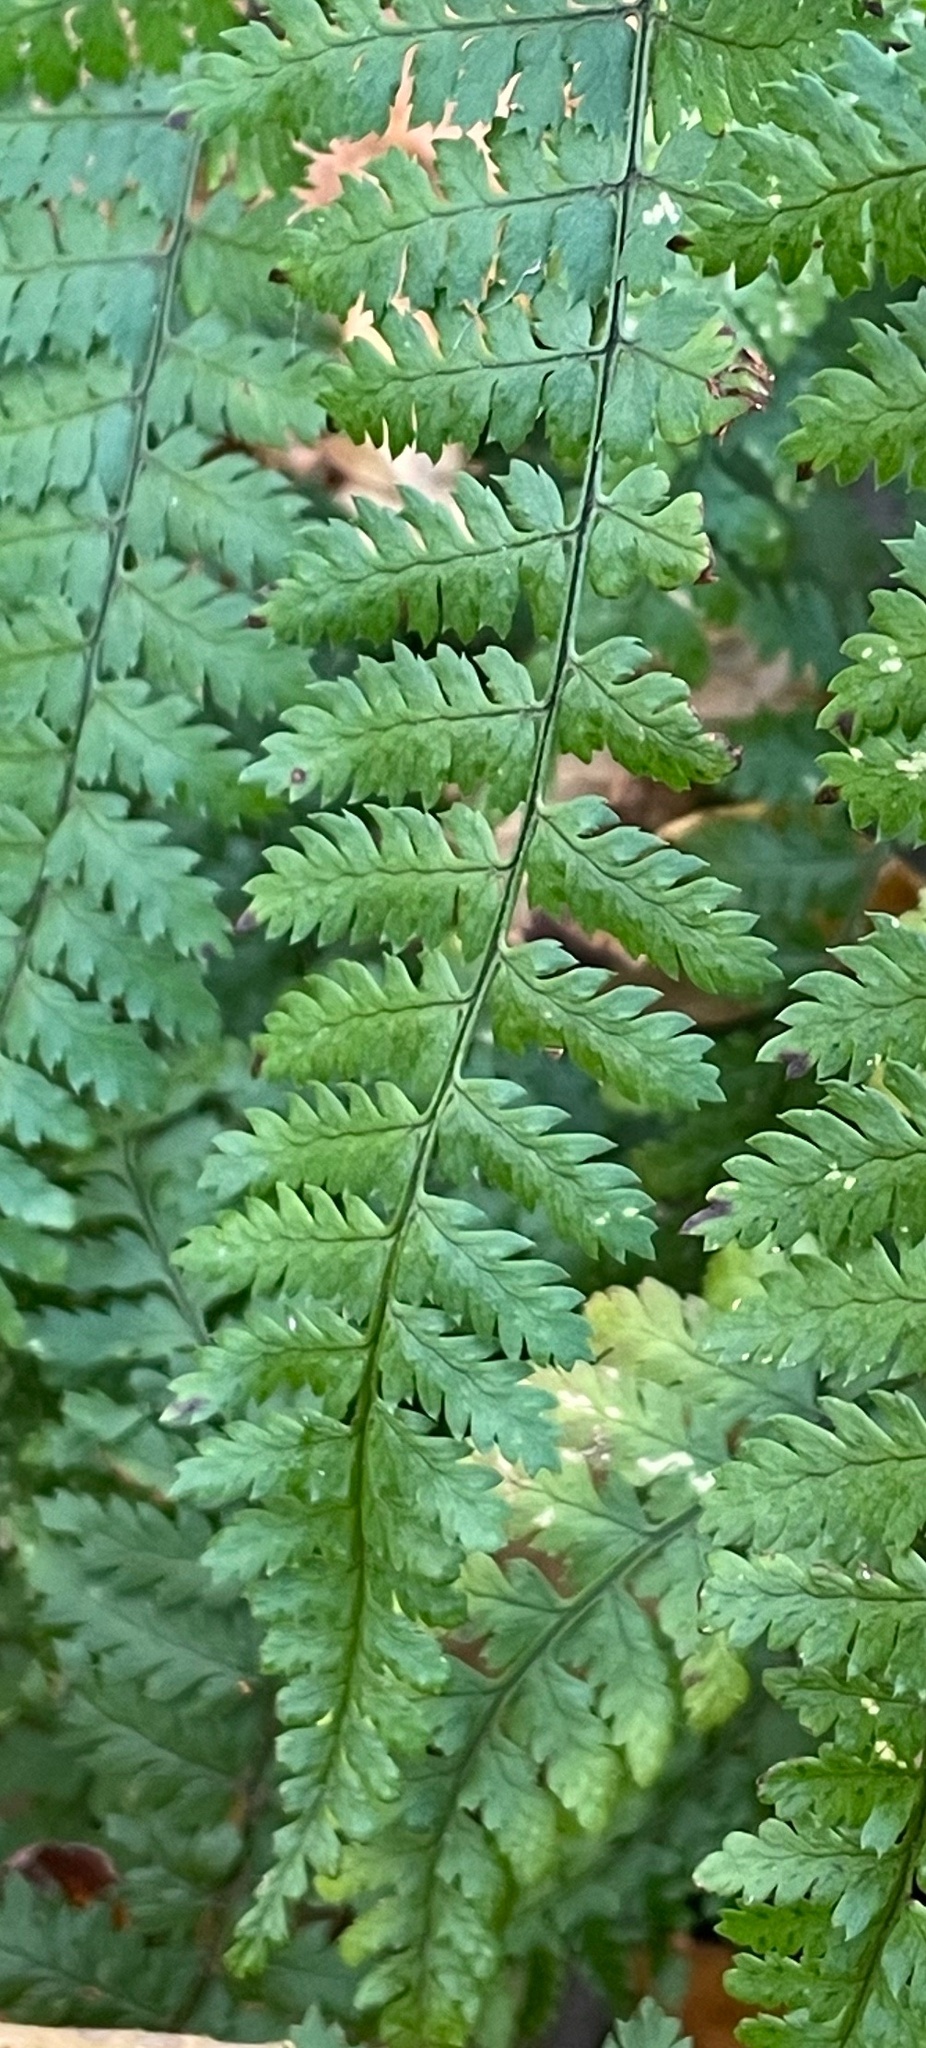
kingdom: Plantae
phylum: Tracheophyta
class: Polypodiopsida
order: Polypodiales
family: Dryopteridaceae
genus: Dryopteris
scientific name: Dryopteris intermedia
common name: Evergreen wood fern
